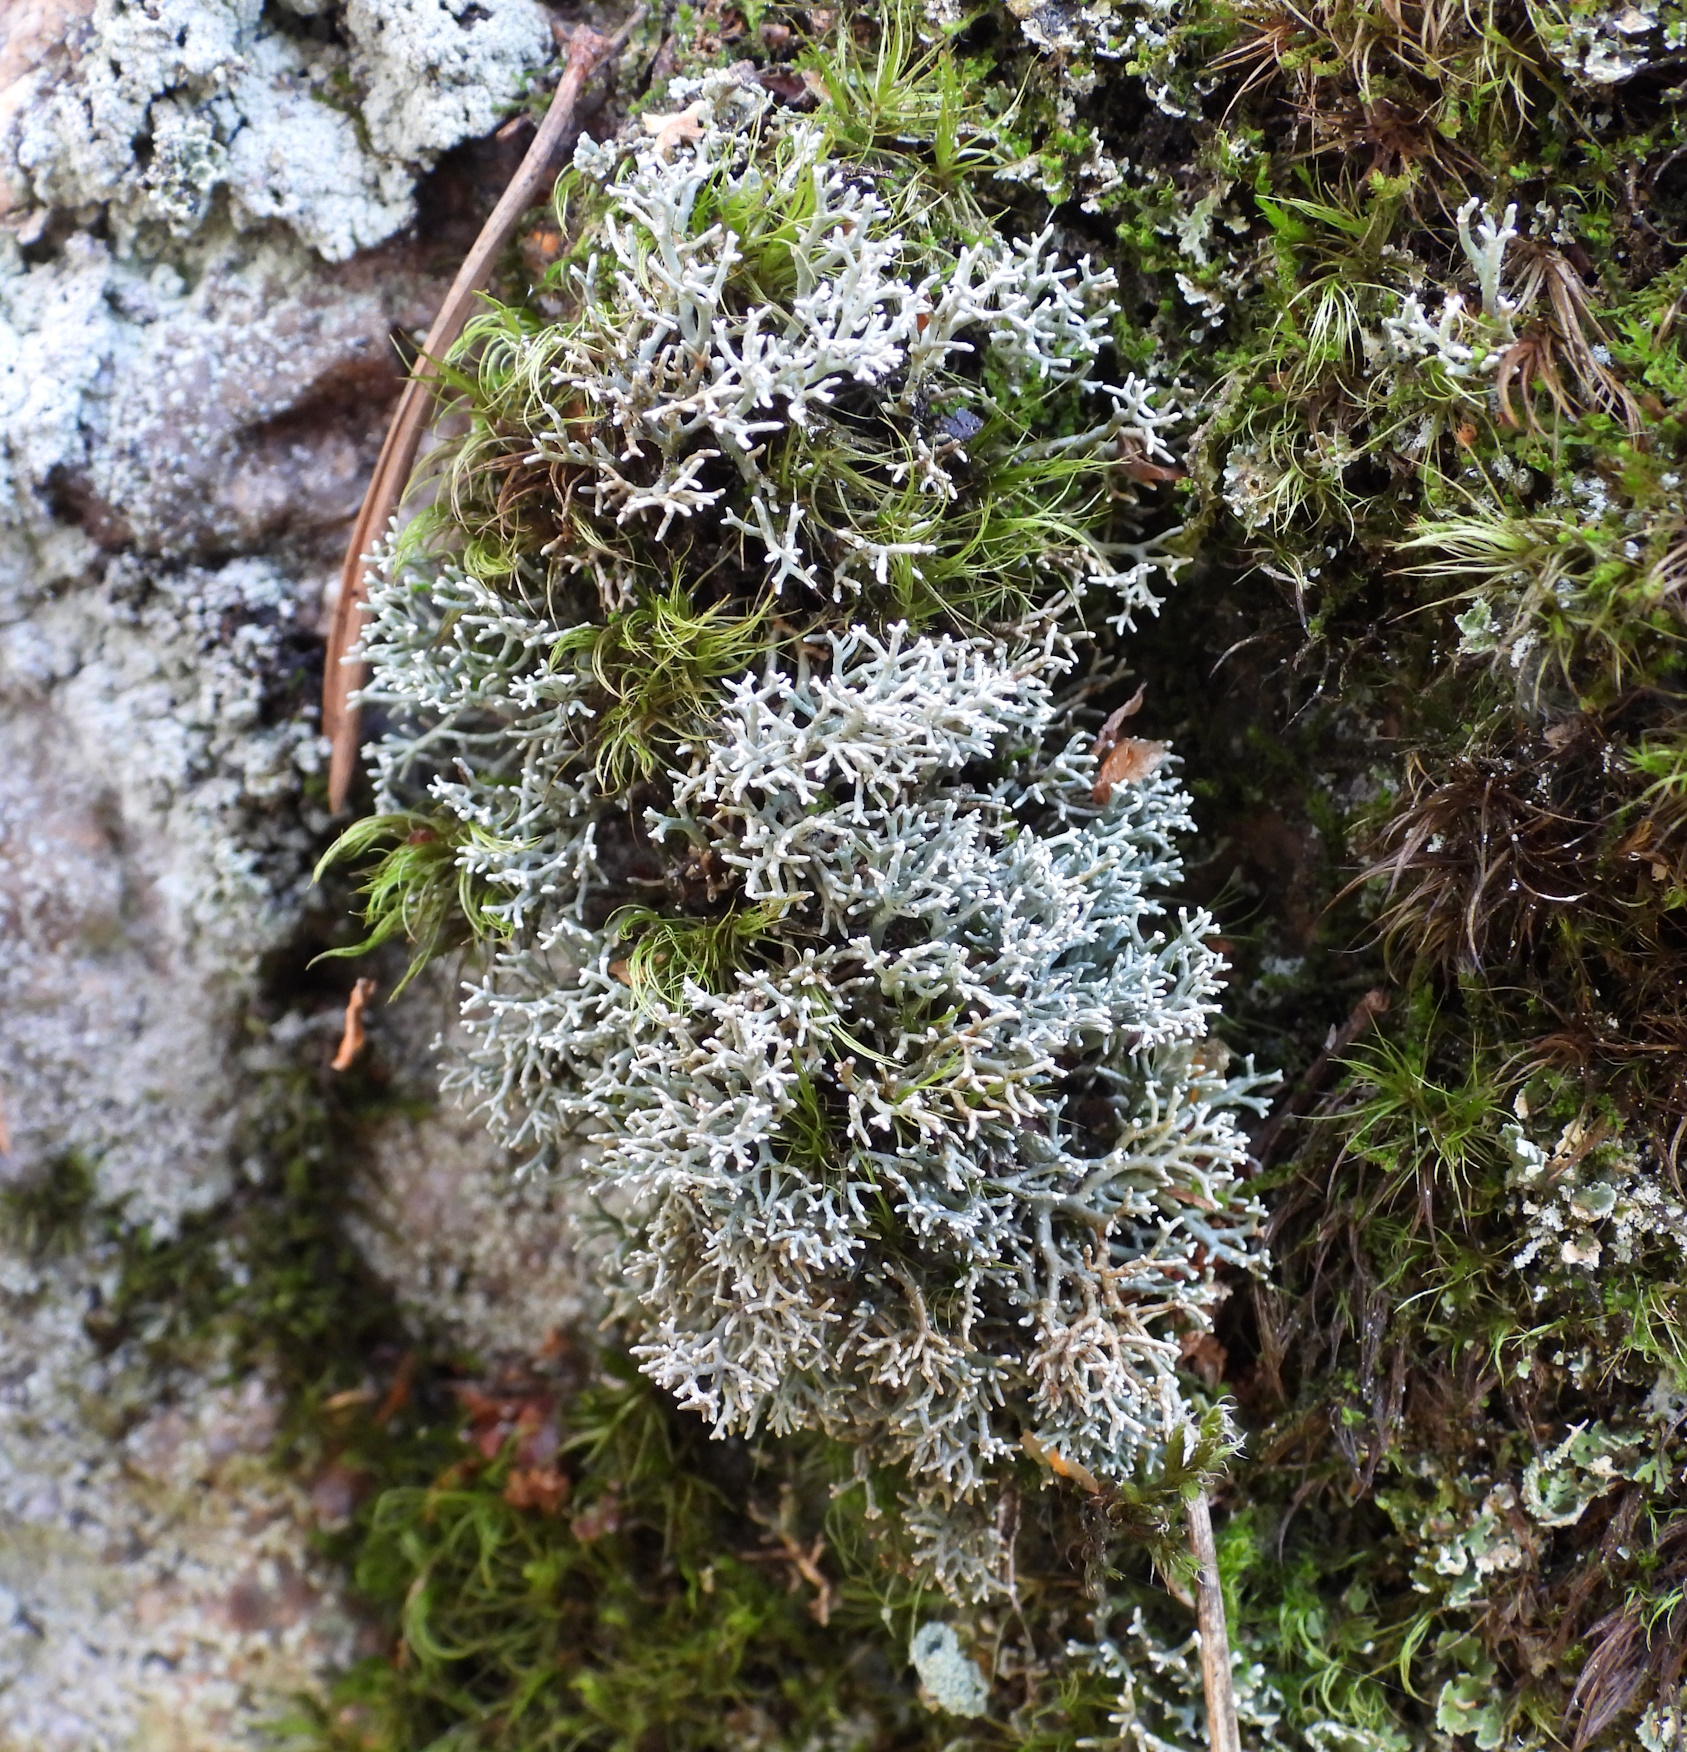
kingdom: Fungi
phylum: Ascomycota
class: Lecanoromycetes
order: Lecanorales
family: Sphaerophoraceae
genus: Sphaerophorus
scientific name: Sphaerophorus fragilis
